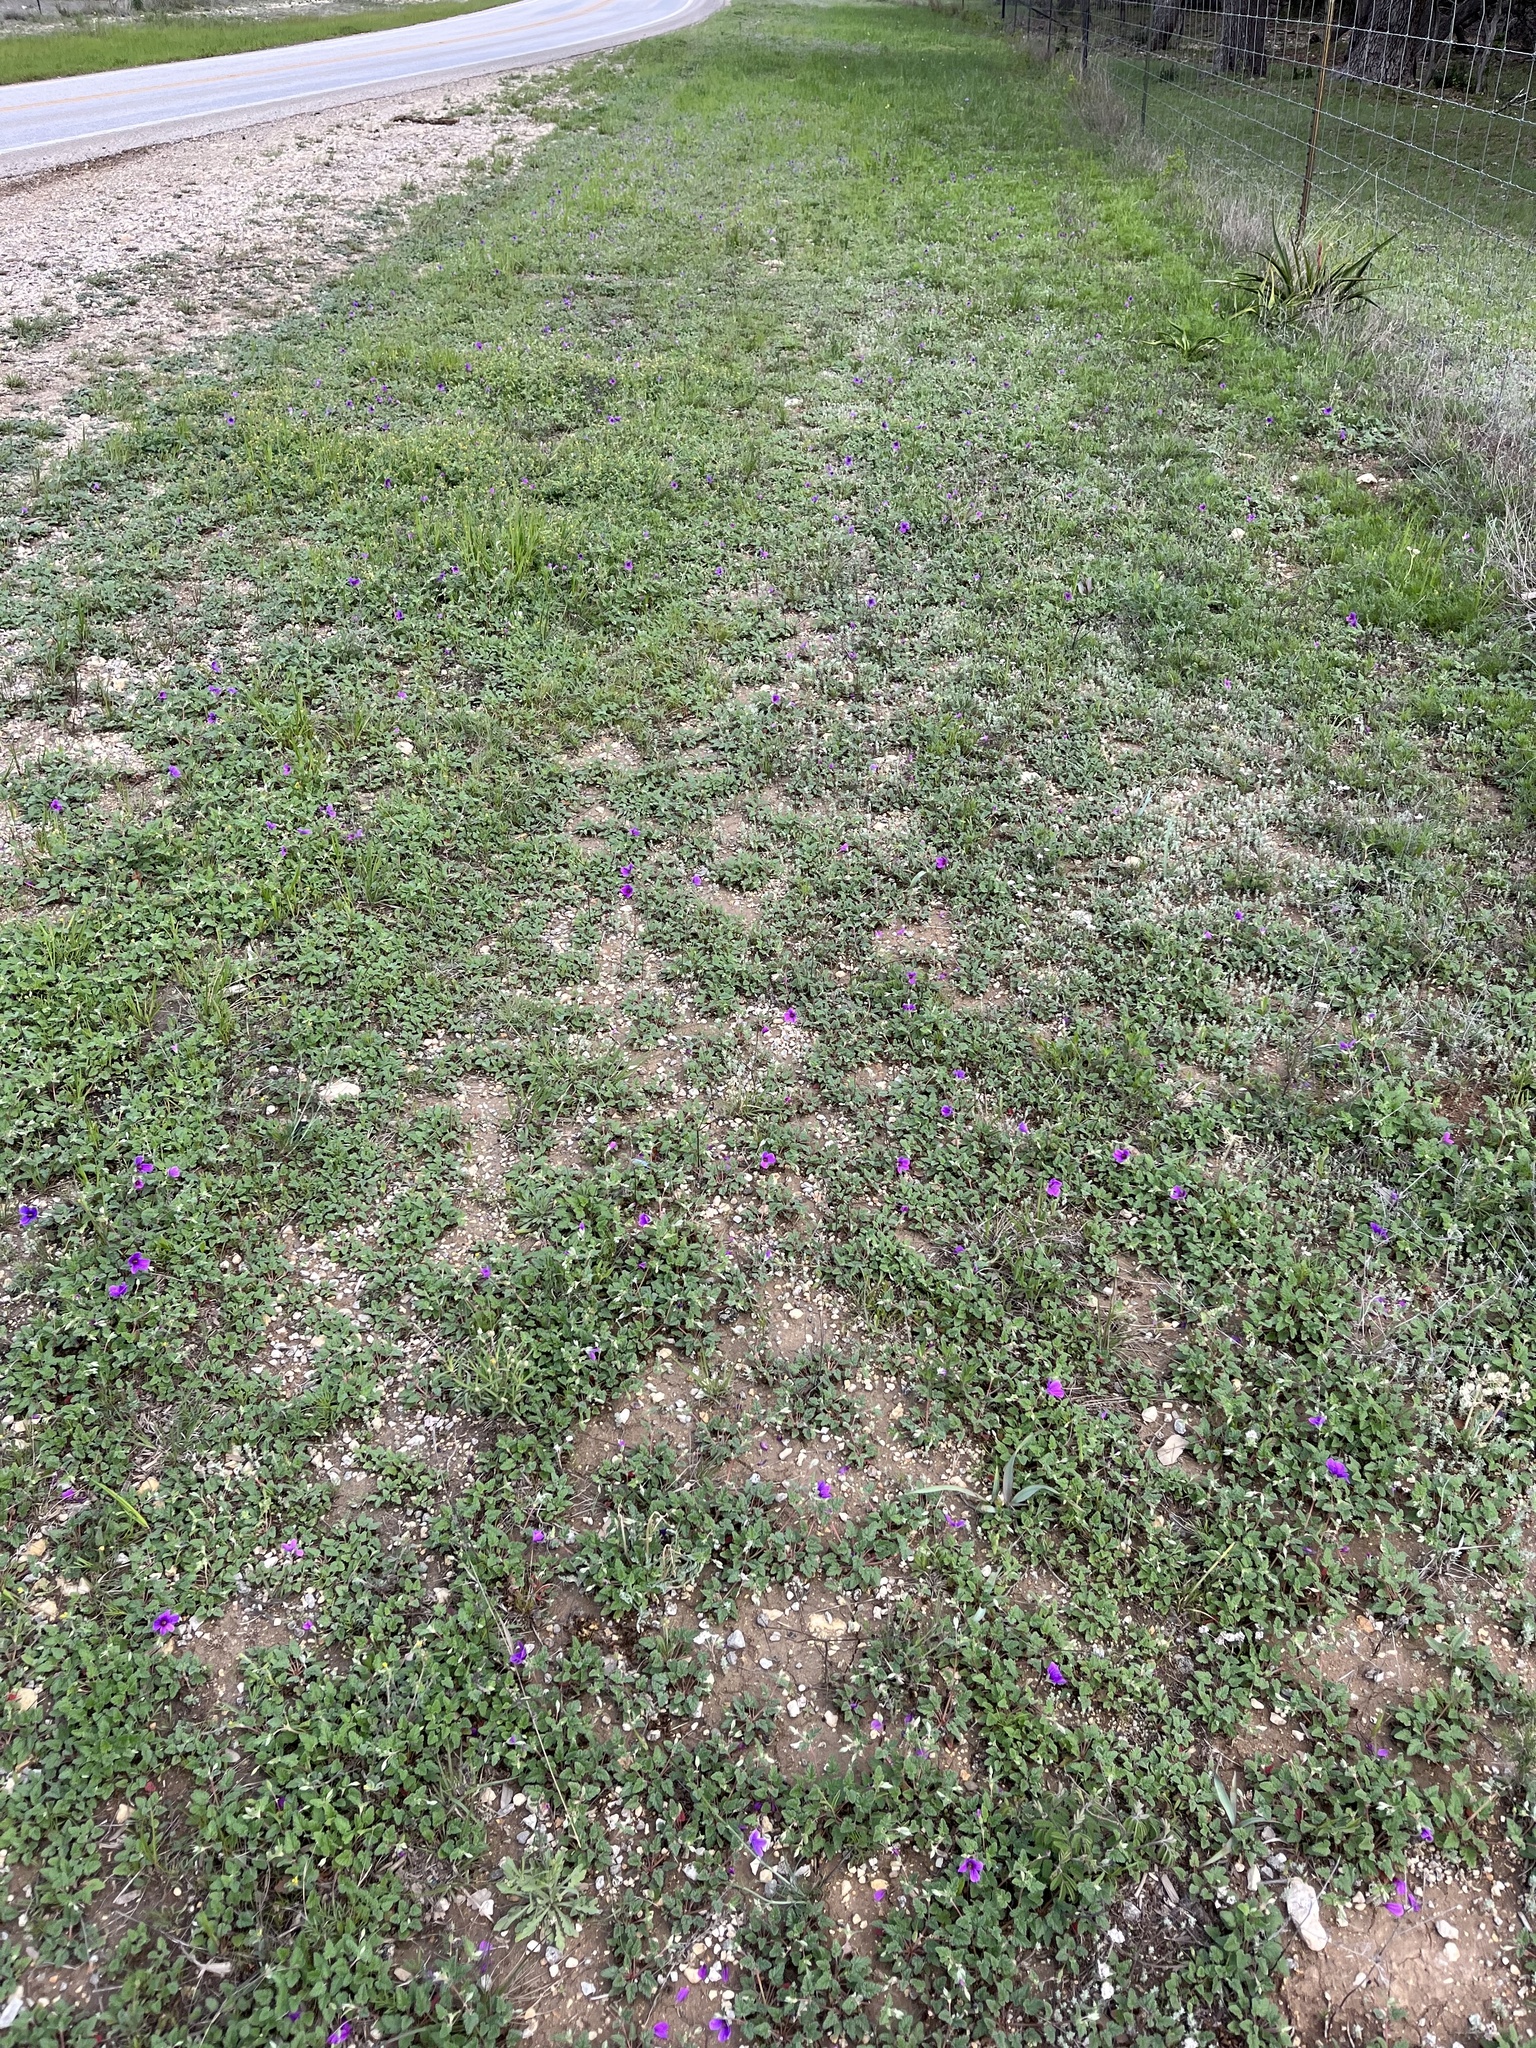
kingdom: Plantae
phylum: Tracheophyta
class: Magnoliopsida
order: Geraniales
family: Geraniaceae
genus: Erodium
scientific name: Erodium texanum
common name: Texas stork's-bill
